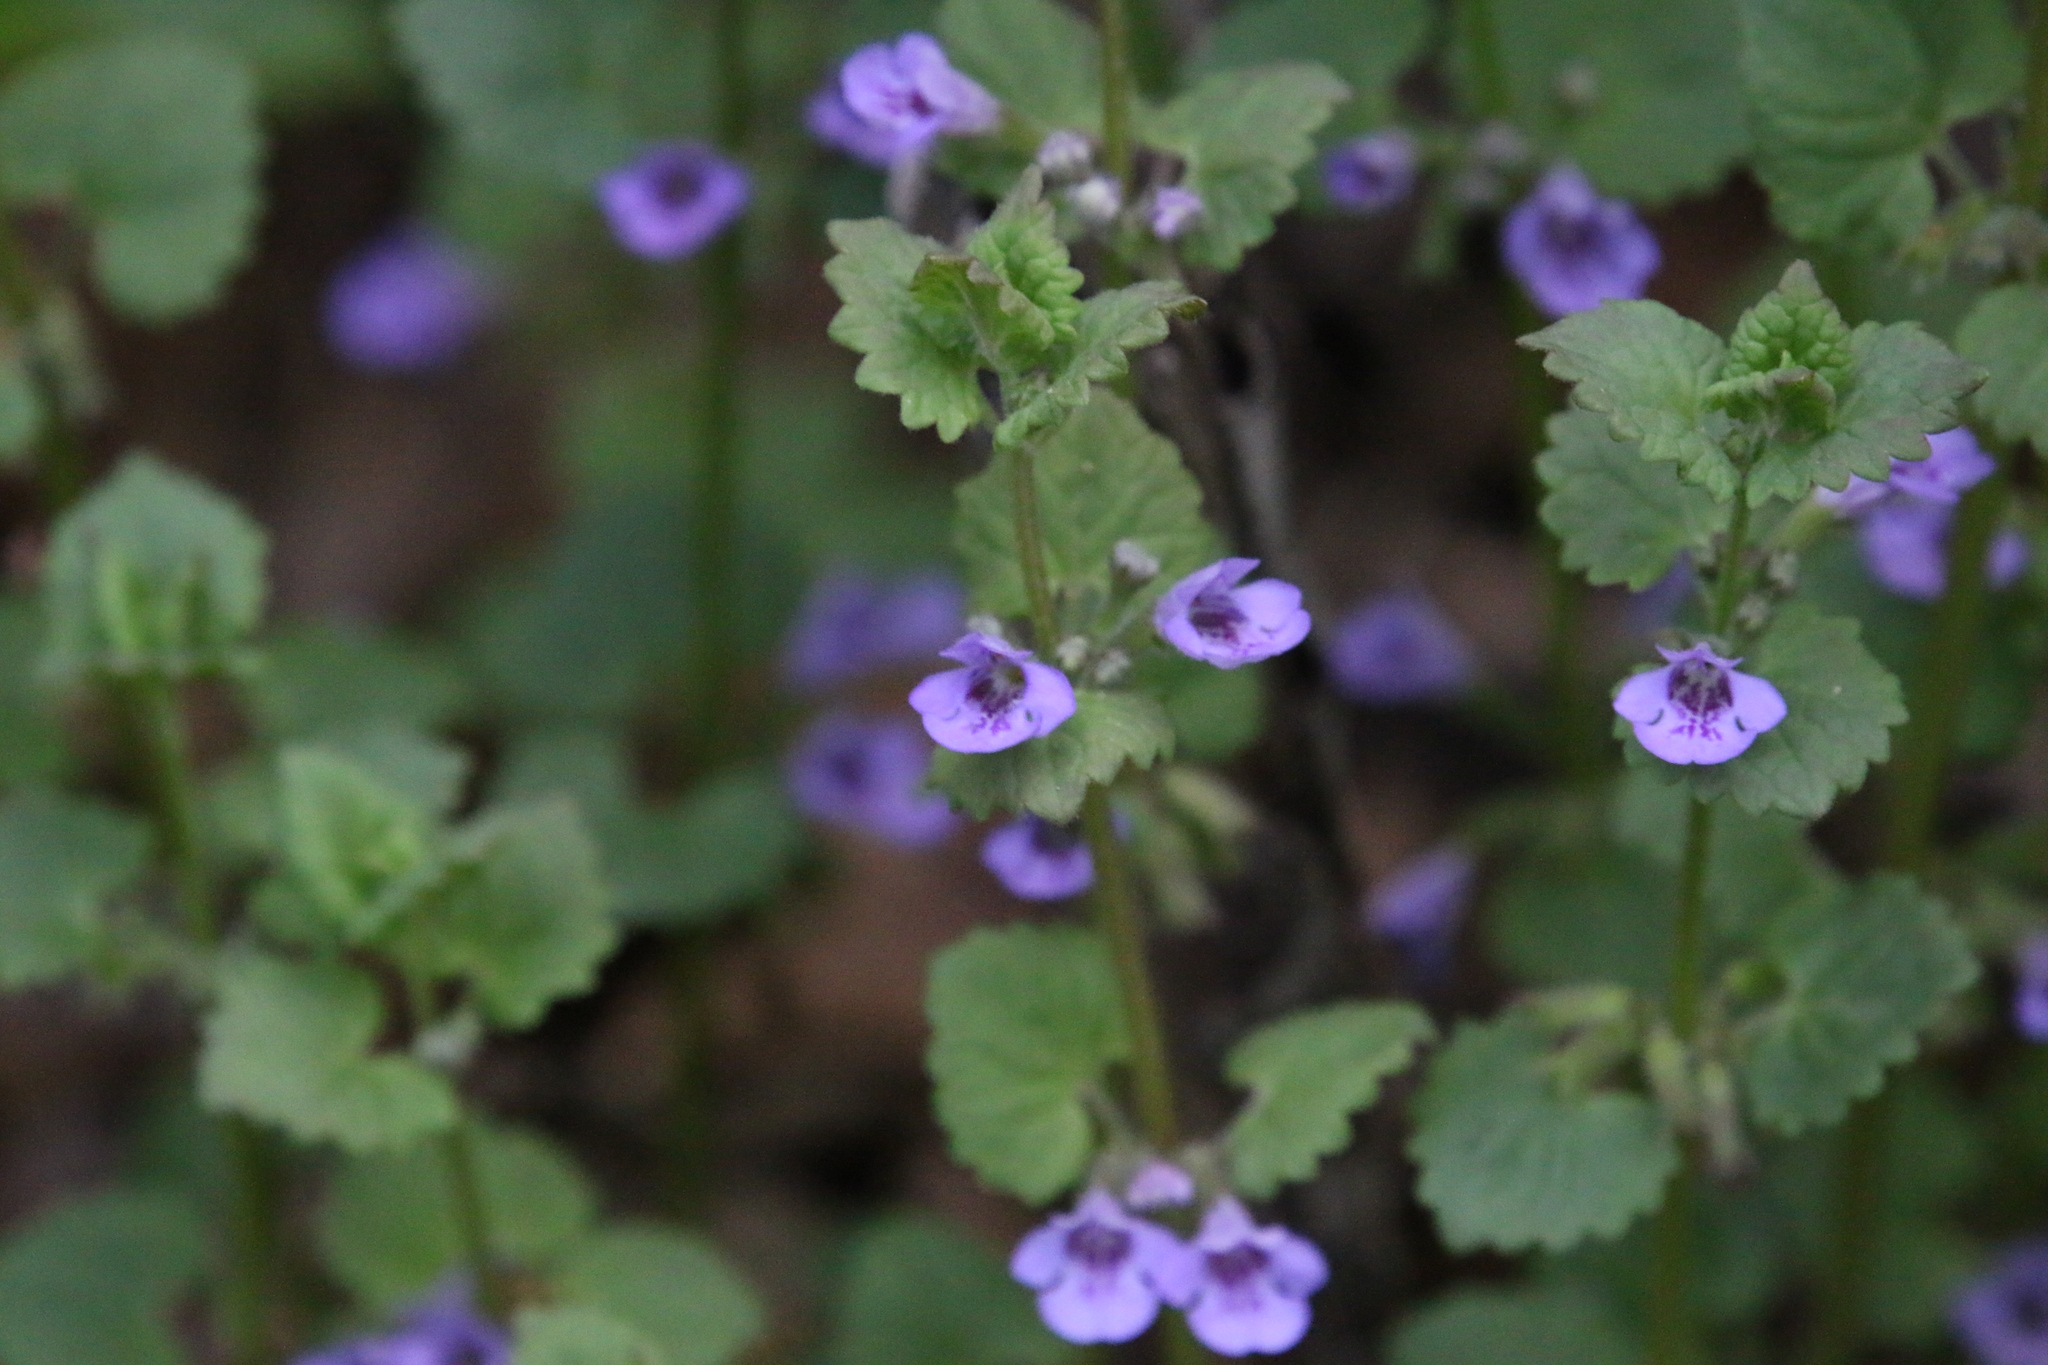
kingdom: Plantae
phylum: Tracheophyta
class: Magnoliopsida
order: Lamiales
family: Lamiaceae
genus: Glechoma
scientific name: Glechoma hederacea
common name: Ground ivy
